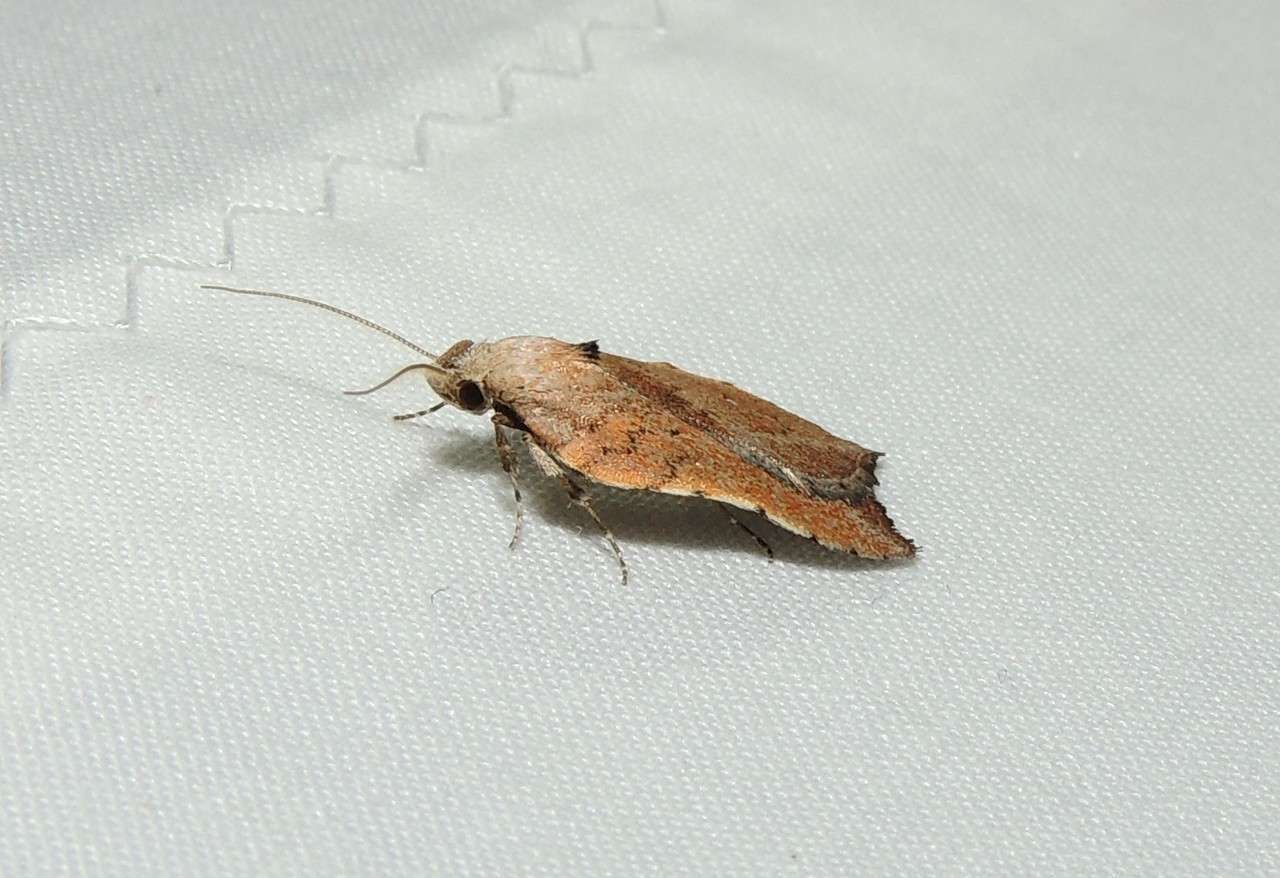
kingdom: Animalia
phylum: Arthropoda
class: Insecta
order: Lepidoptera
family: Oecophoridae
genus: Arachnographa
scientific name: Arachnographa micrastrella
